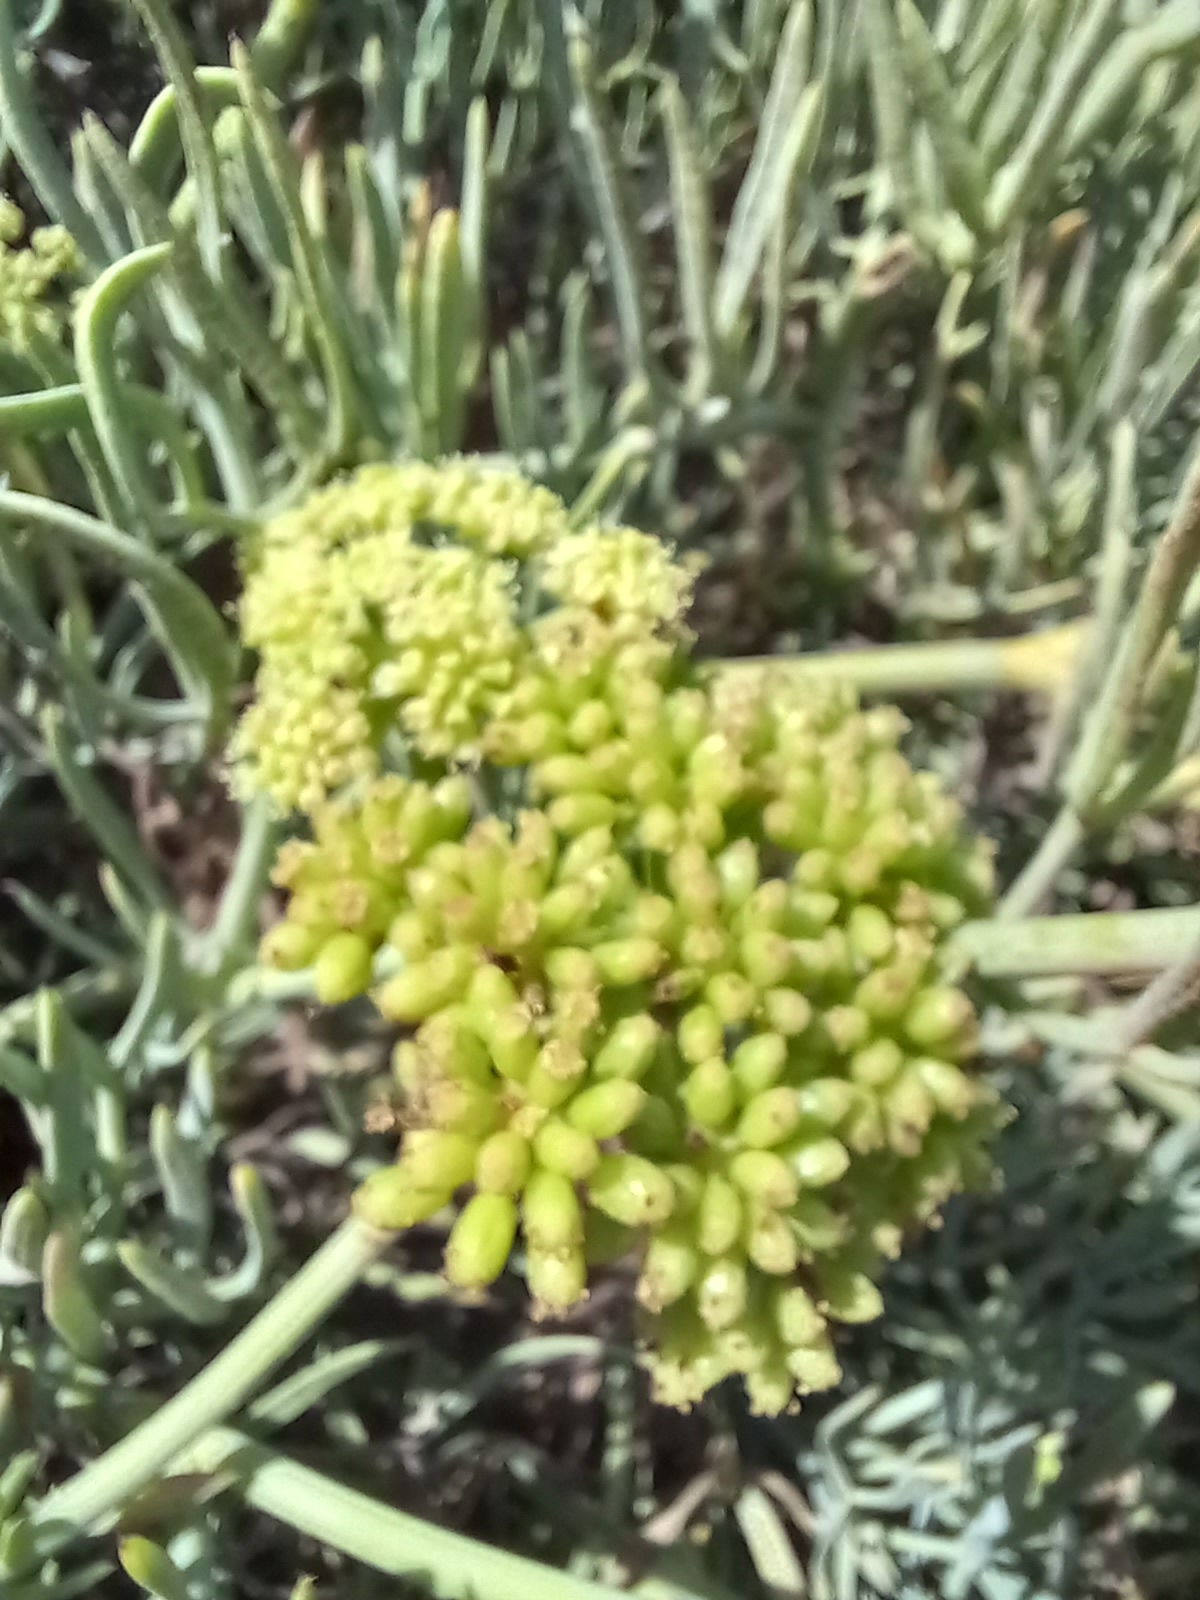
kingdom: Plantae
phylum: Tracheophyta
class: Magnoliopsida
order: Apiales
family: Apiaceae
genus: Crithmum
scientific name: Crithmum maritimum
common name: Rock samphire
